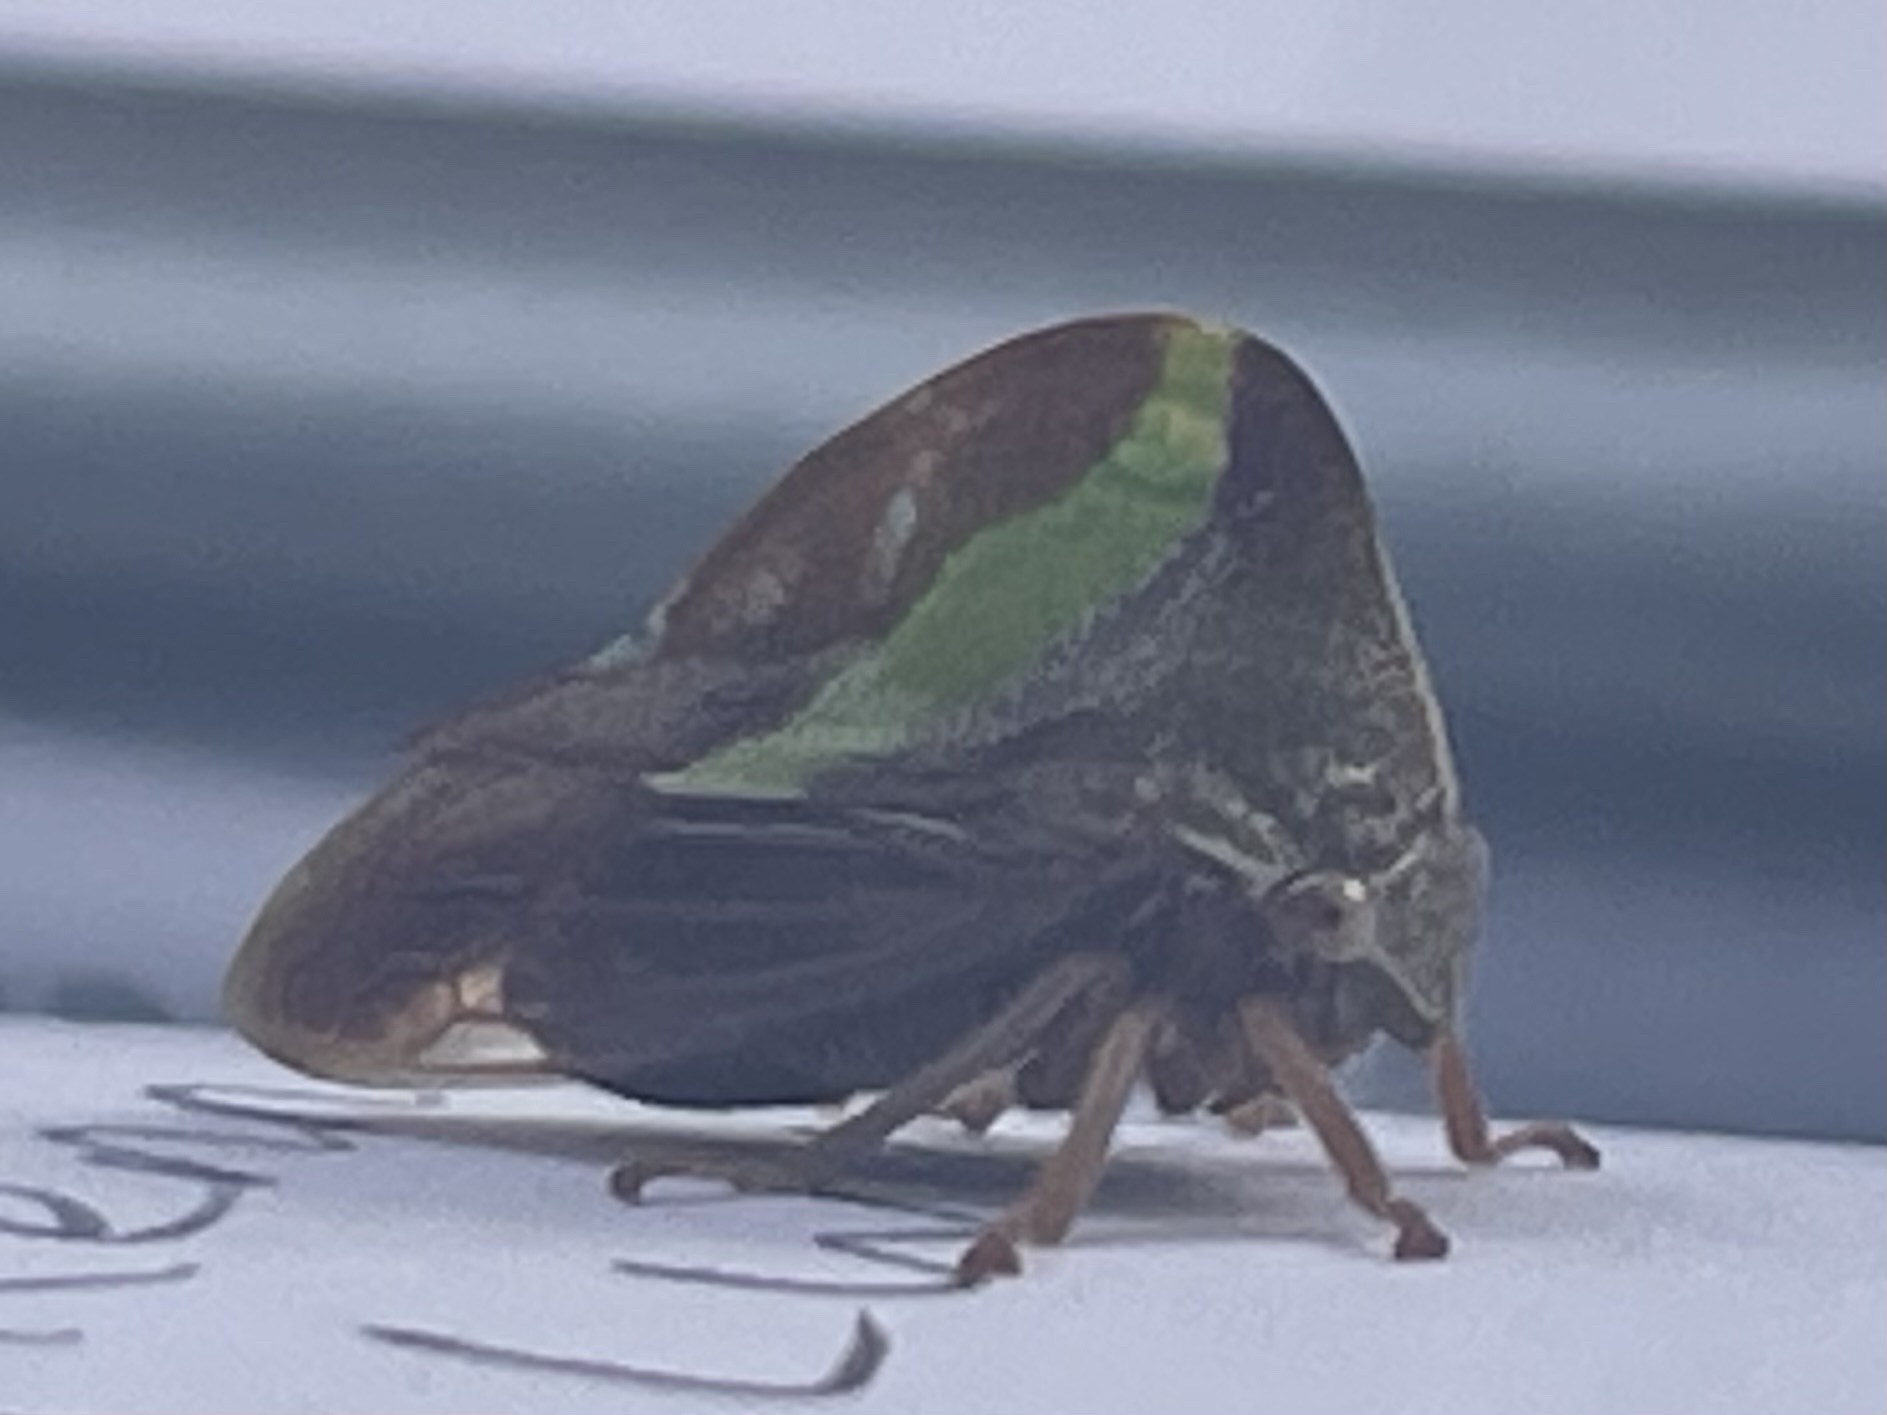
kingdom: Animalia
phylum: Arthropoda
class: Insecta
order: Hemiptera
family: Membracidae
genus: Smilia
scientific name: Smilia camelus
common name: Camel treehopper
